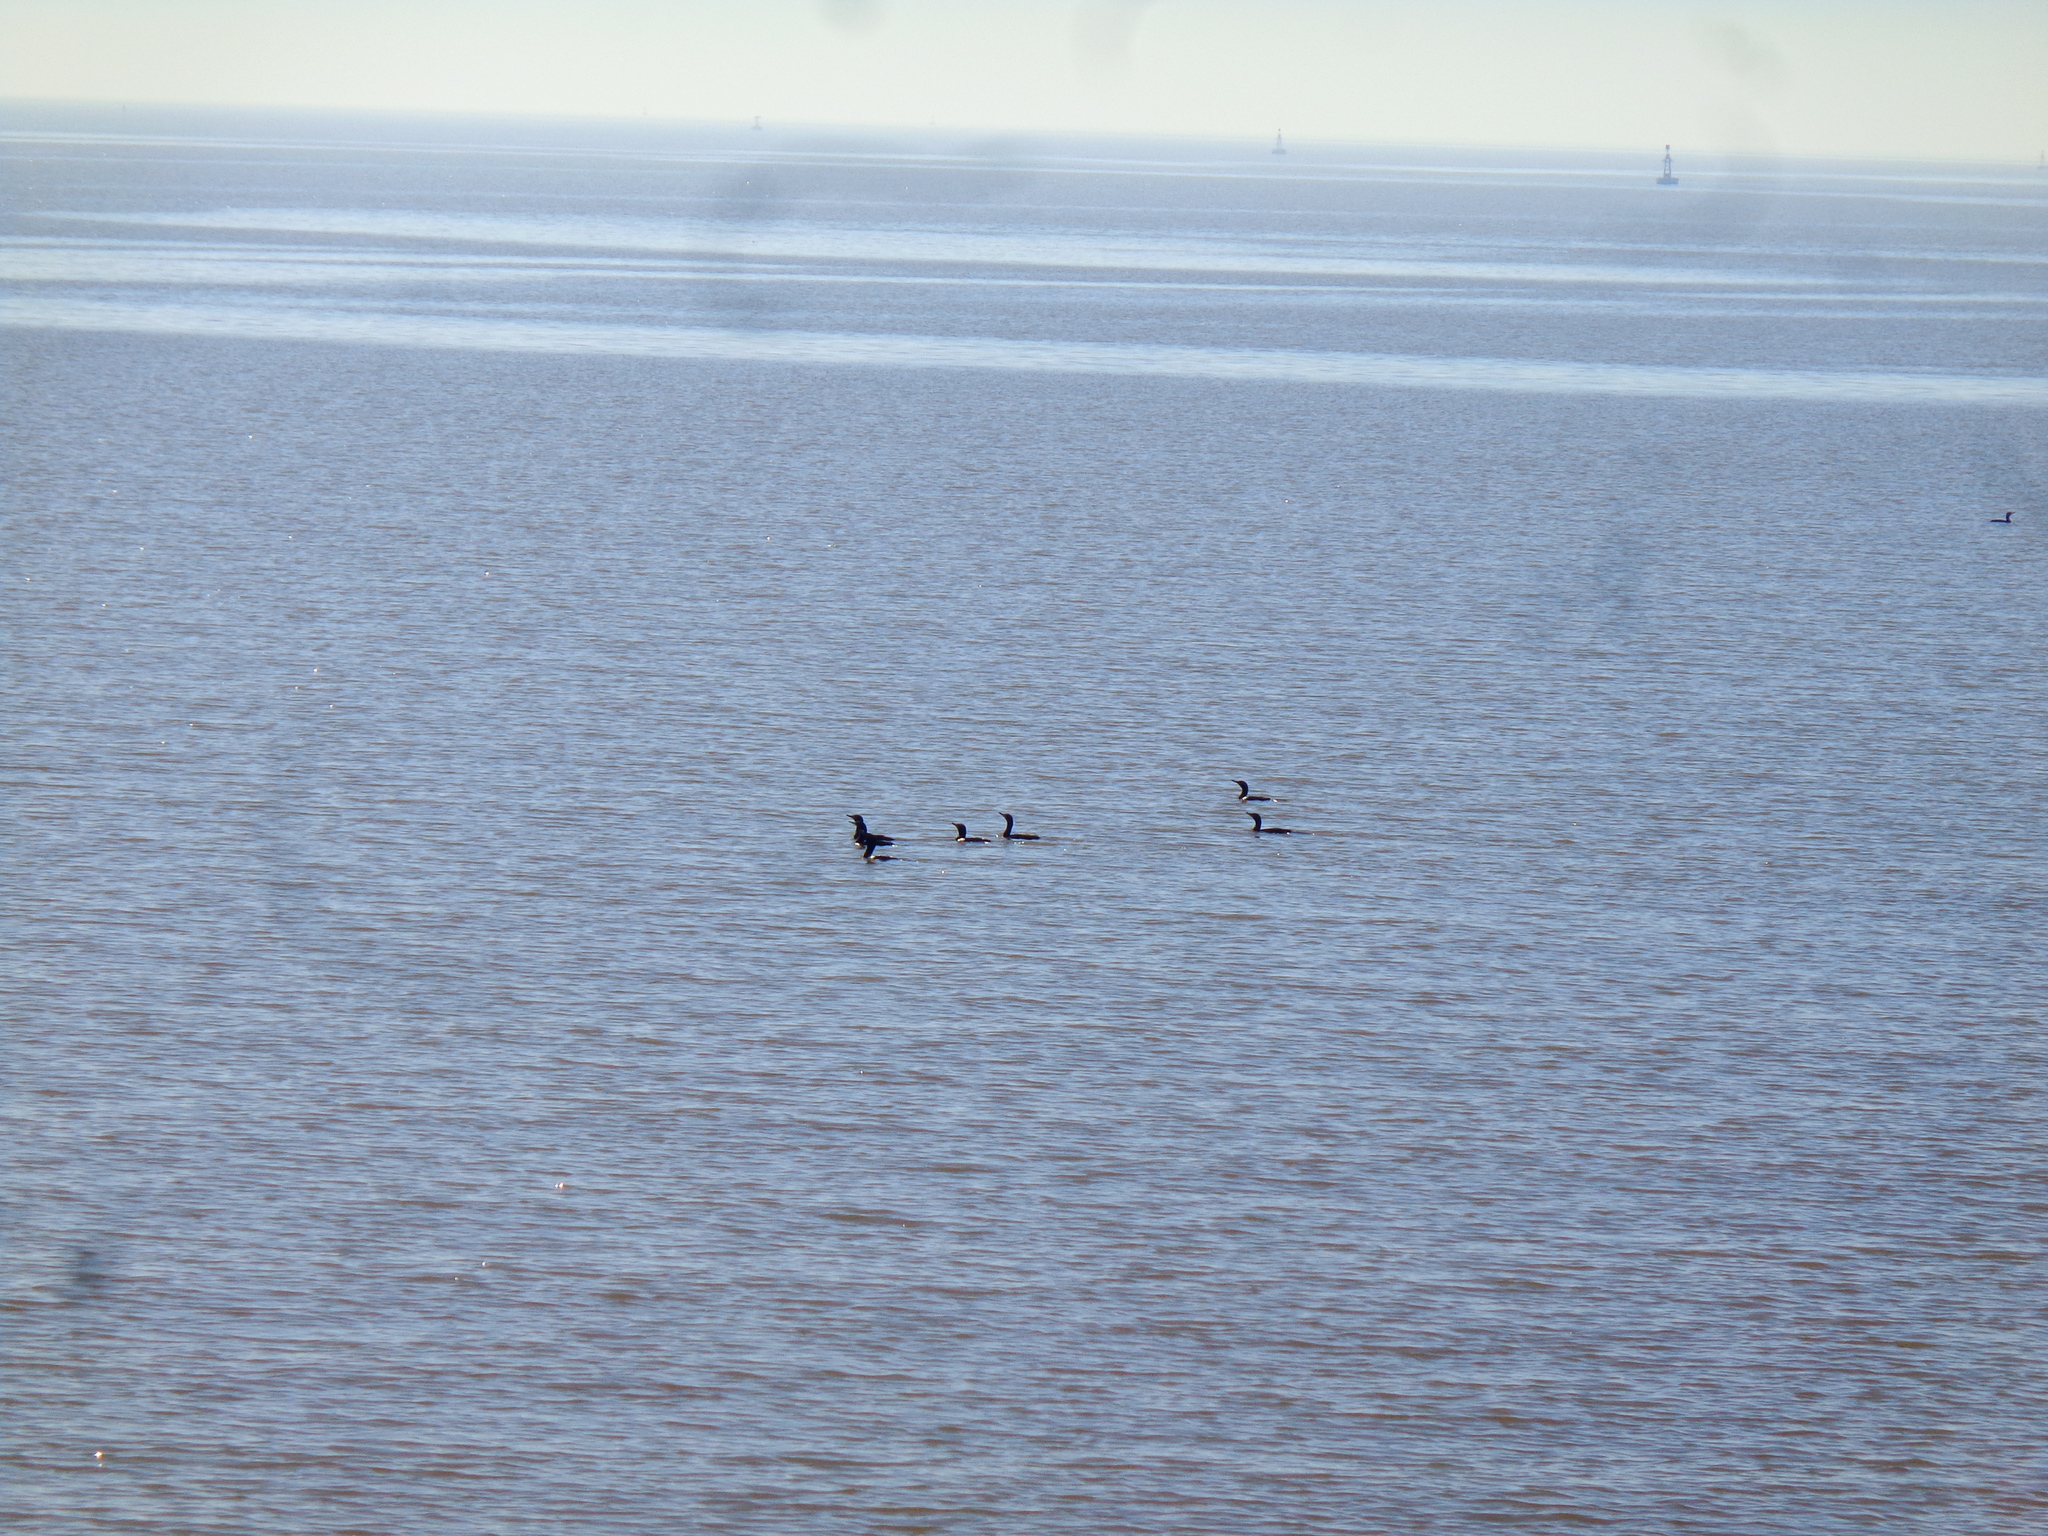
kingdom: Animalia
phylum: Chordata
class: Aves
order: Suliformes
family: Phalacrocoracidae
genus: Phalacrocorax
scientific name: Phalacrocorax brasilianus
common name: Neotropic cormorant
